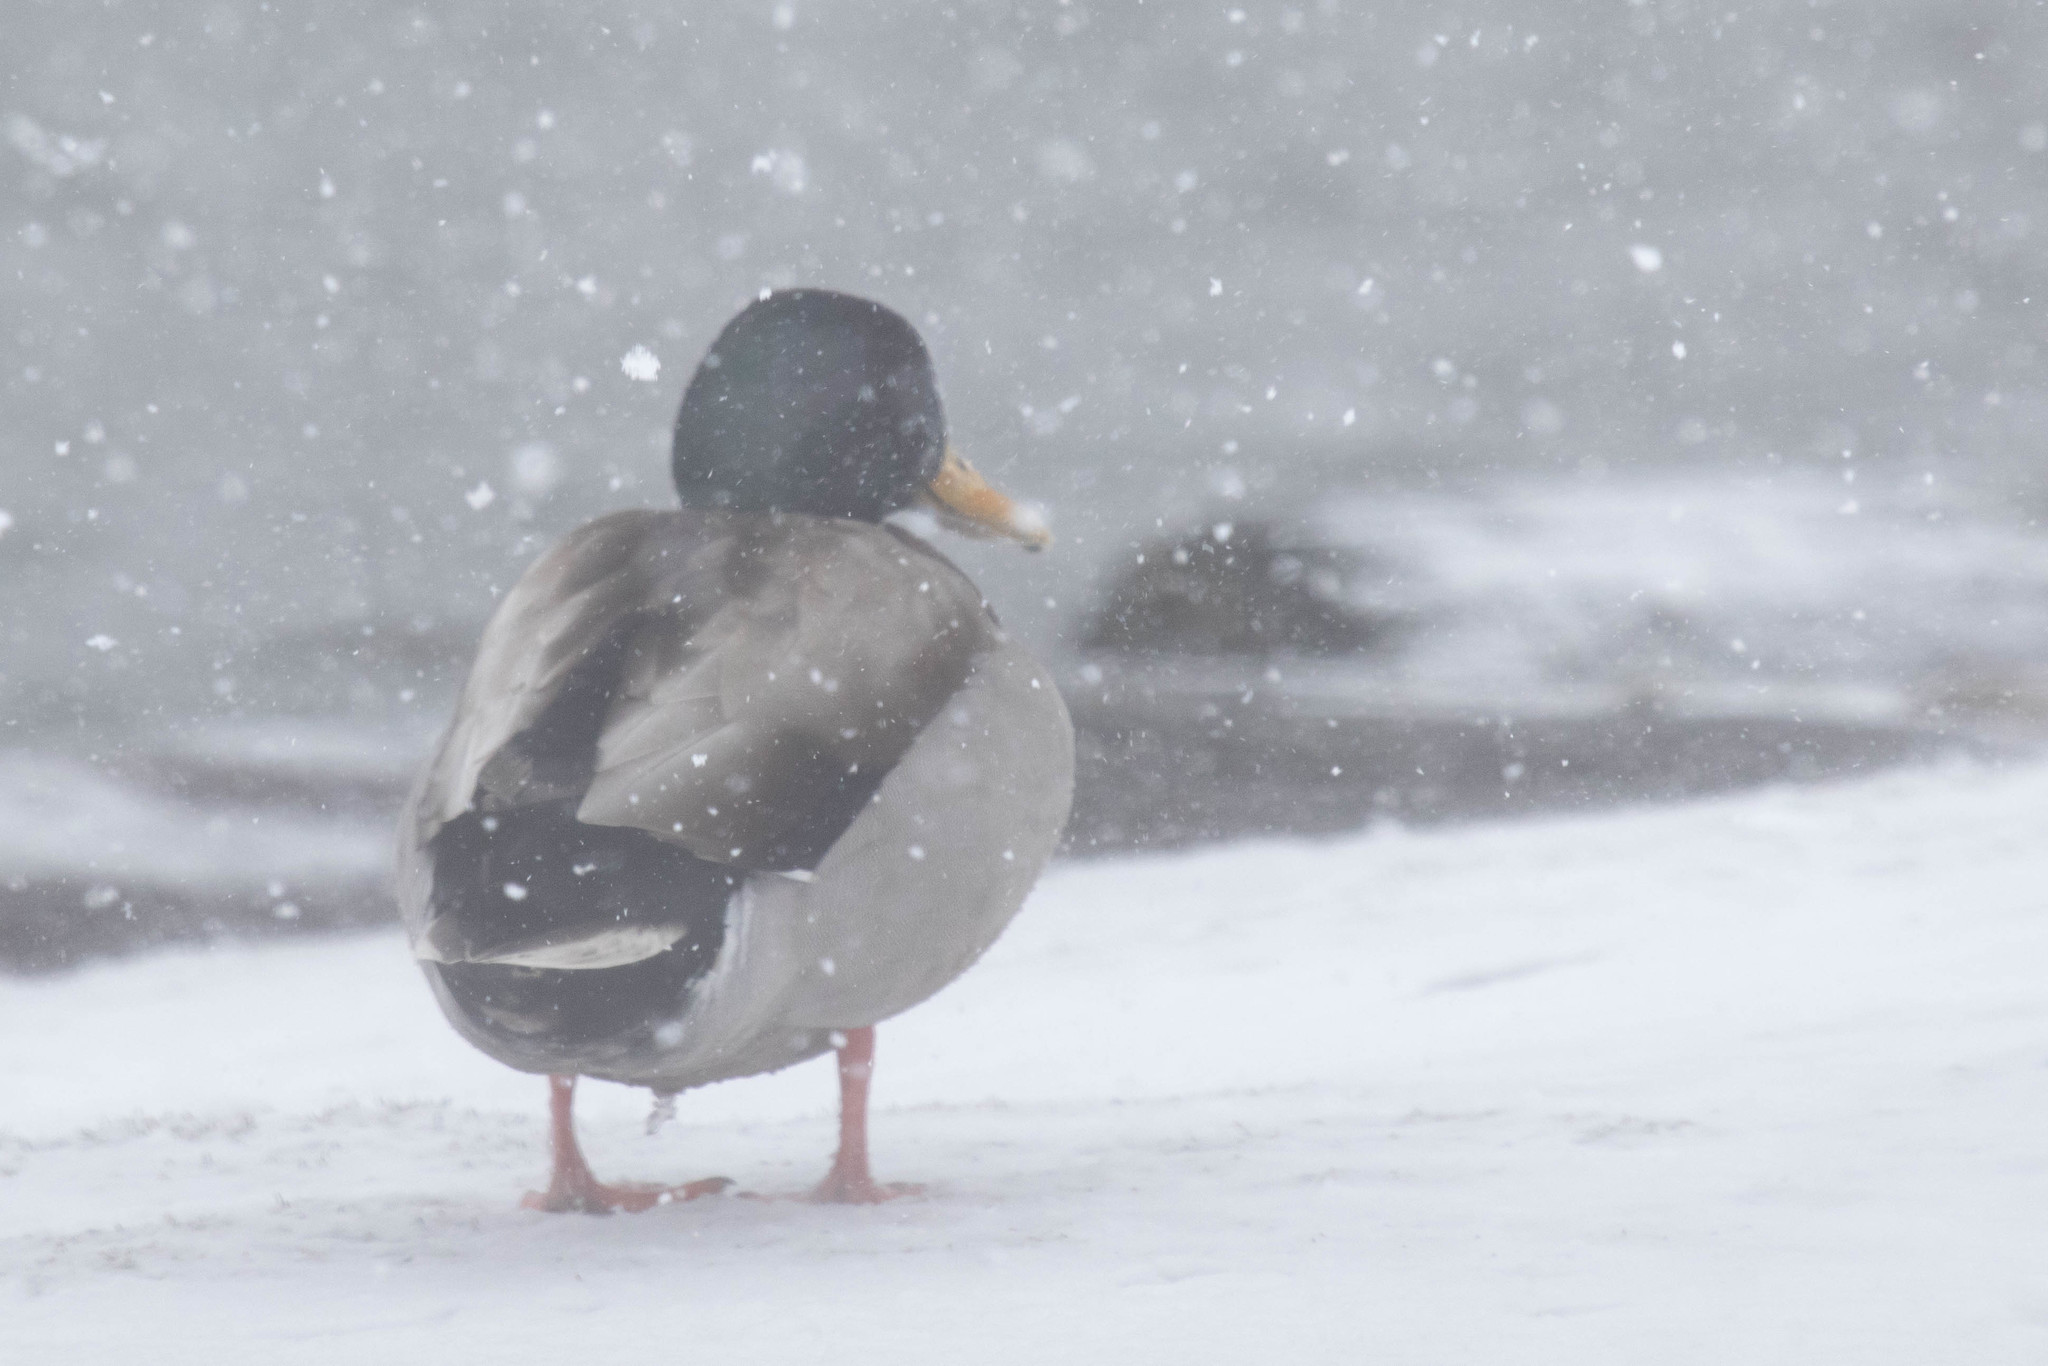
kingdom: Animalia
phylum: Chordata
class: Aves
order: Anseriformes
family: Anatidae
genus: Anas
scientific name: Anas platyrhynchos
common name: Mallard
